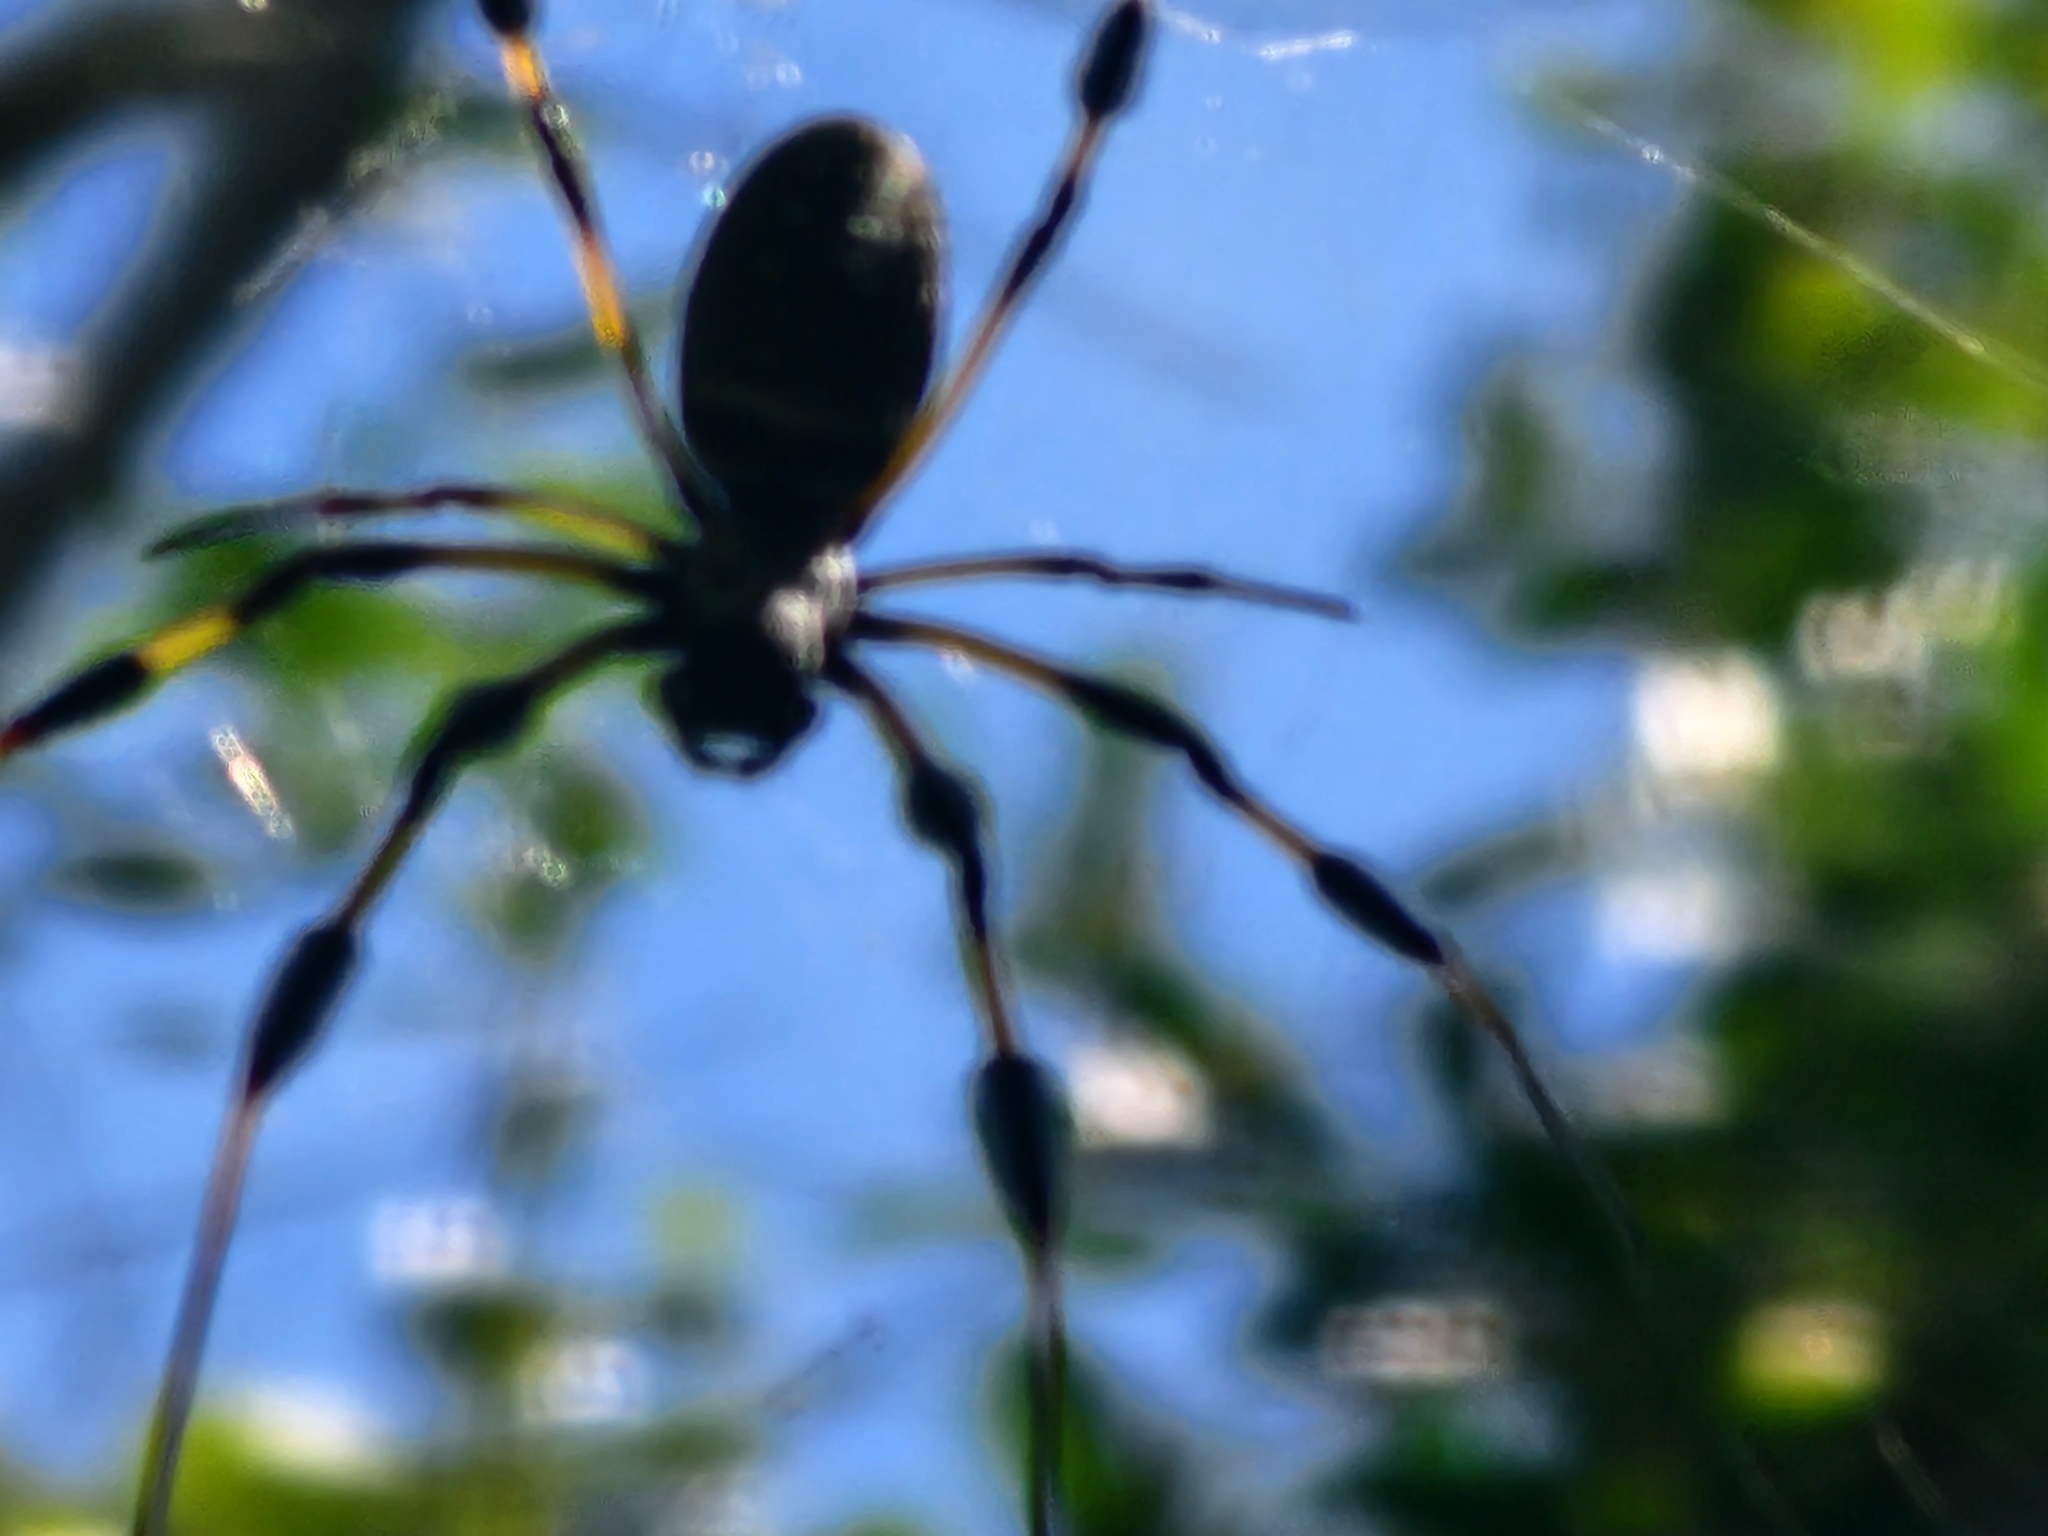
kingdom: Animalia
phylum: Arthropoda
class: Arachnida
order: Araneae
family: Araneidae
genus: Trichonephila
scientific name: Trichonephila clavipes
